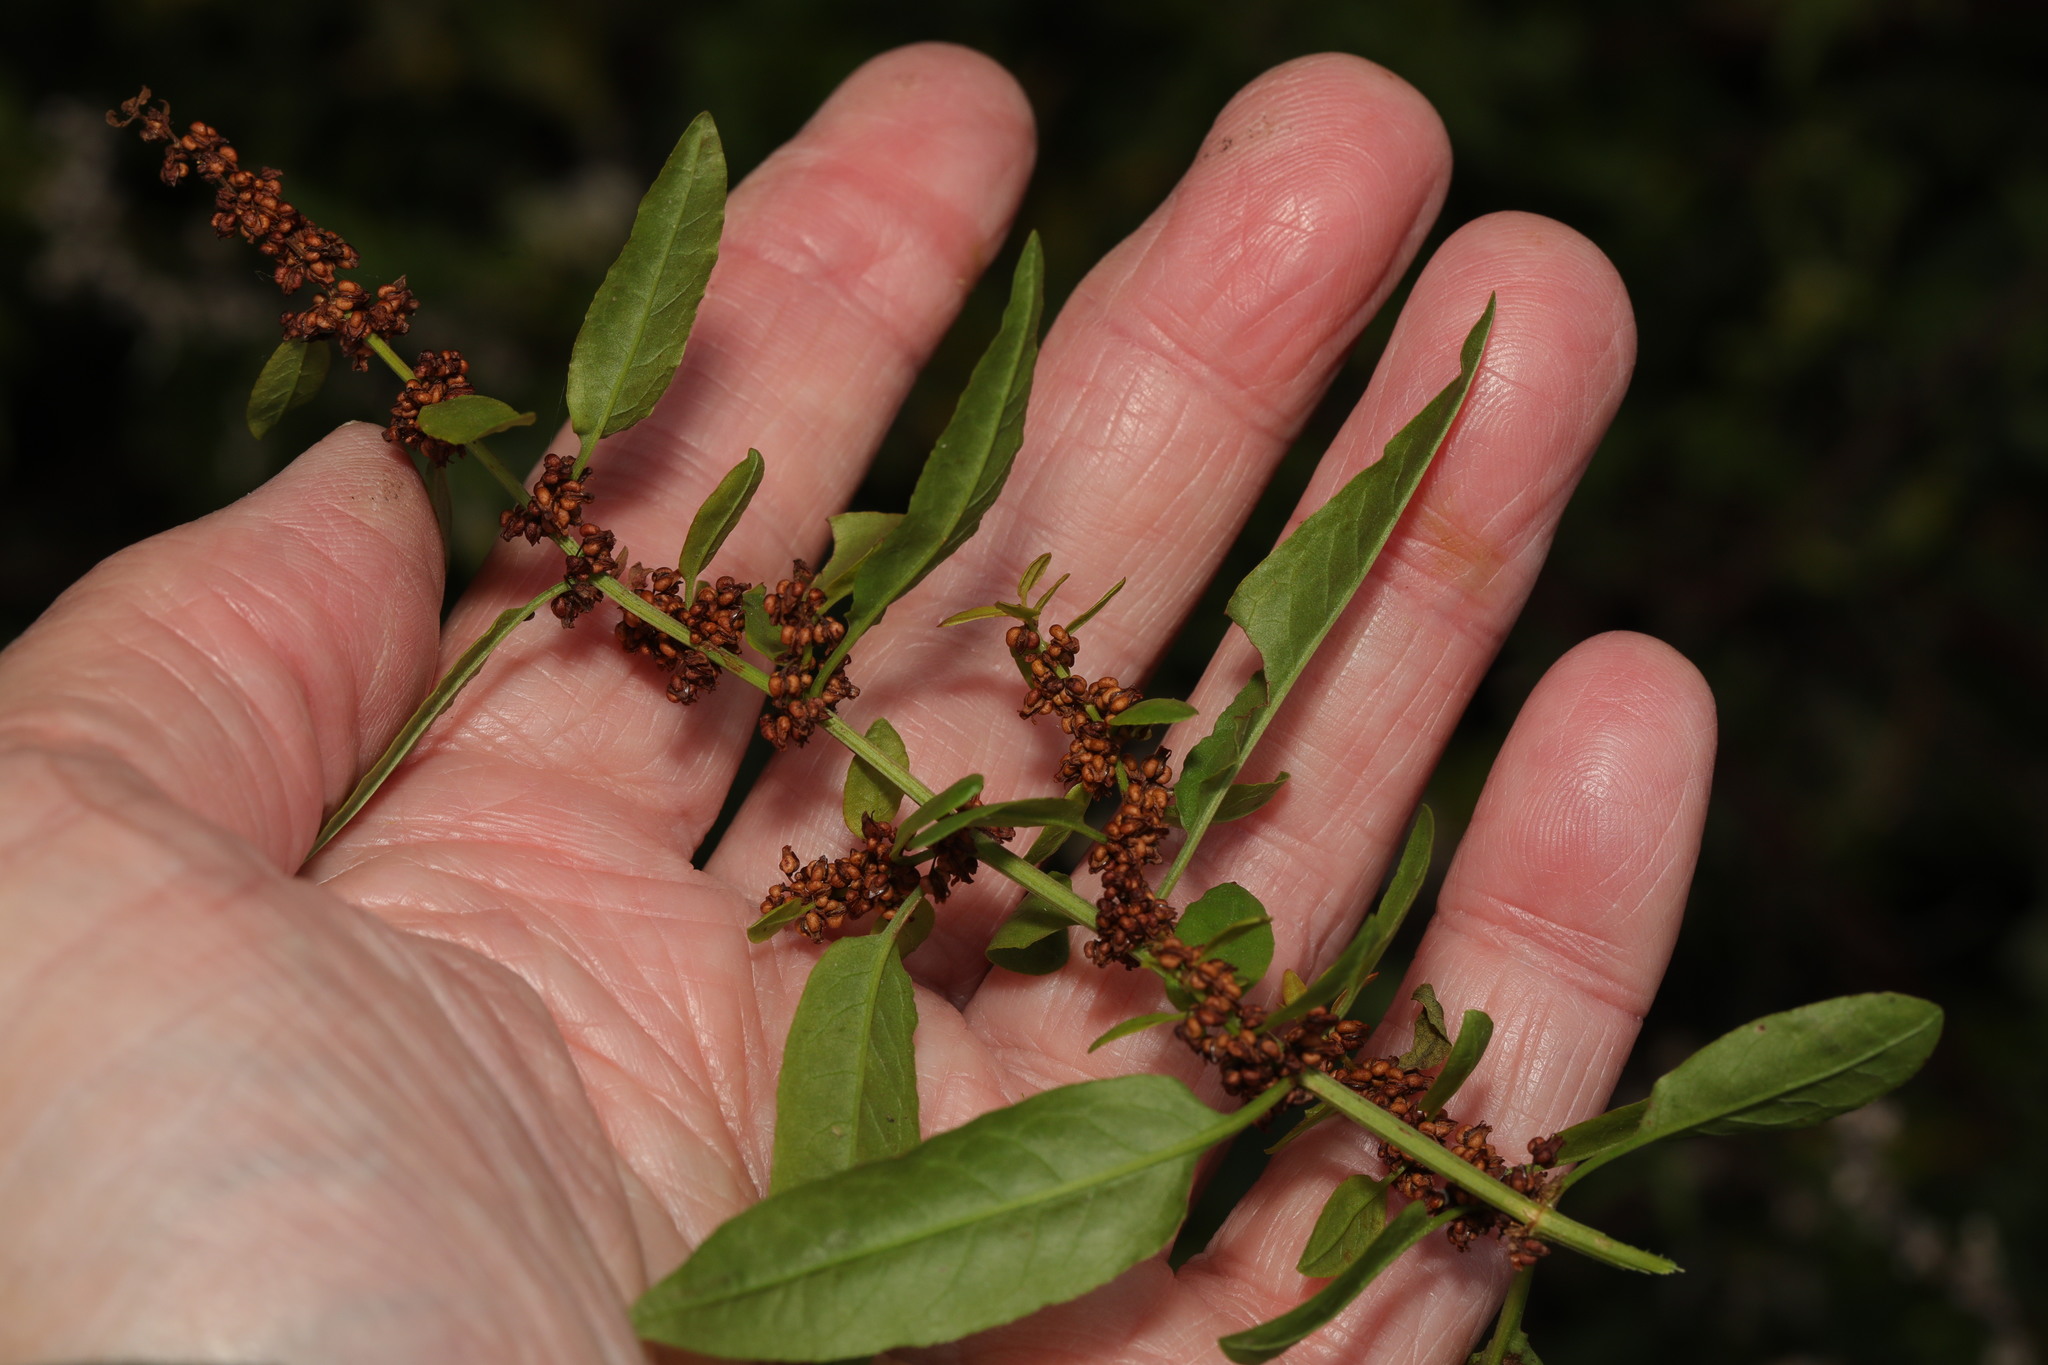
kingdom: Plantae
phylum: Tracheophyta
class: Magnoliopsida
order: Caryophyllales
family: Polygonaceae
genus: Rumex
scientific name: Rumex conglomeratus
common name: Clustered dock
